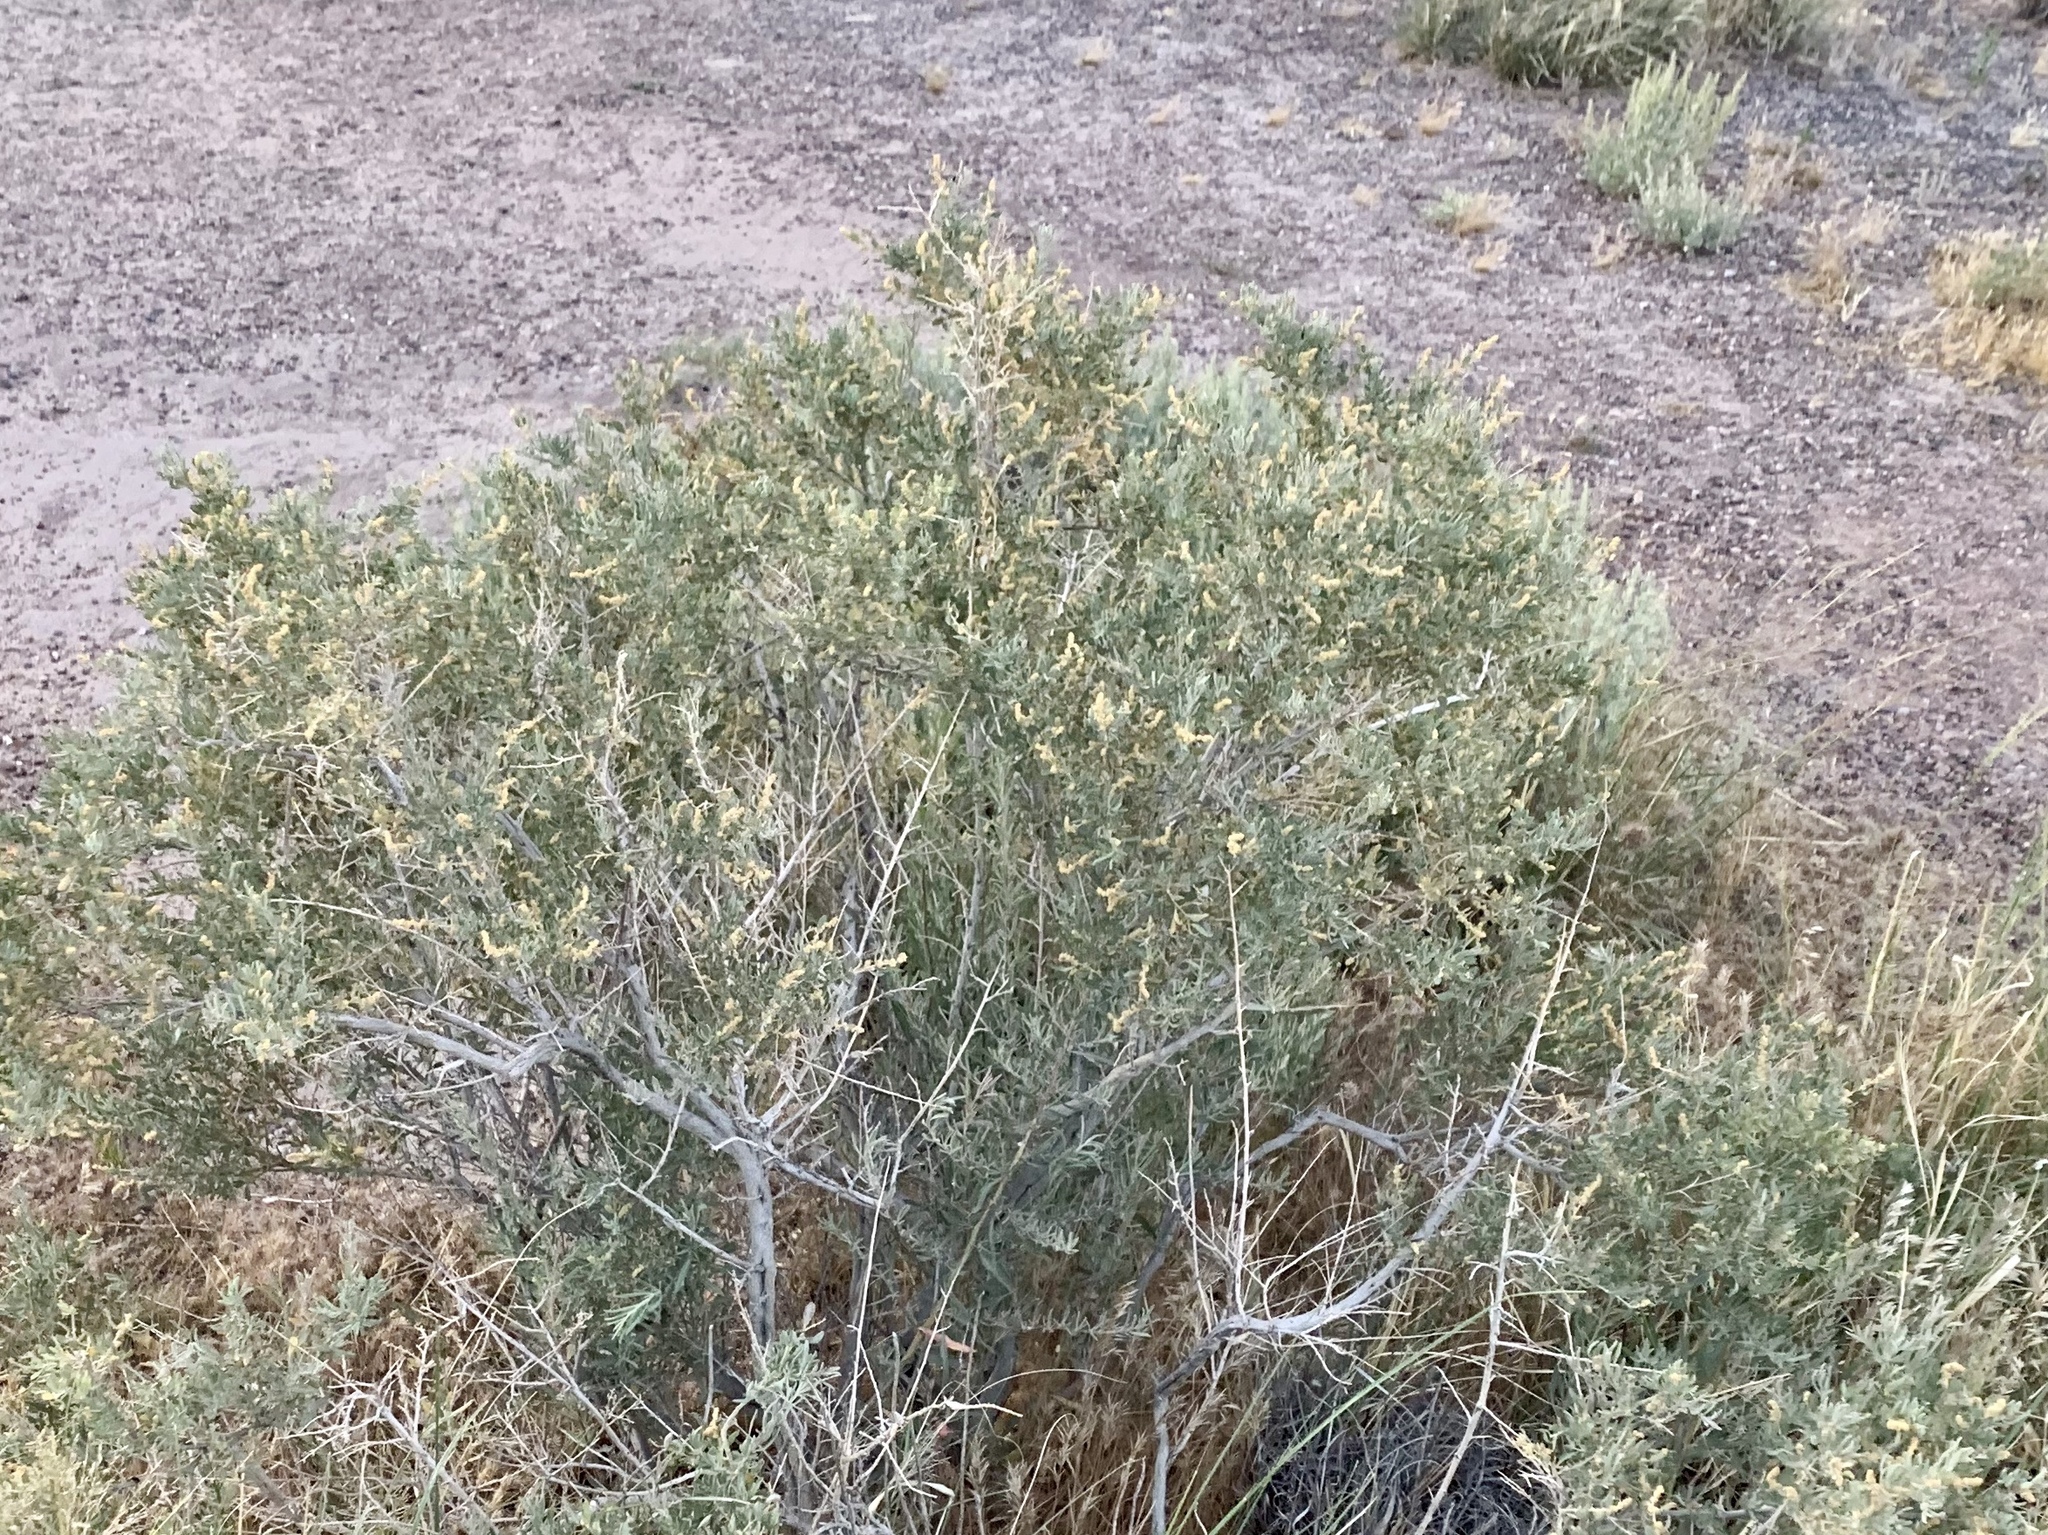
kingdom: Plantae
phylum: Tracheophyta
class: Magnoliopsida
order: Caryophyllales
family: Amaranthaceae
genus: Atriplex
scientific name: Atriplex canescens
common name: Four-wing saltbush
